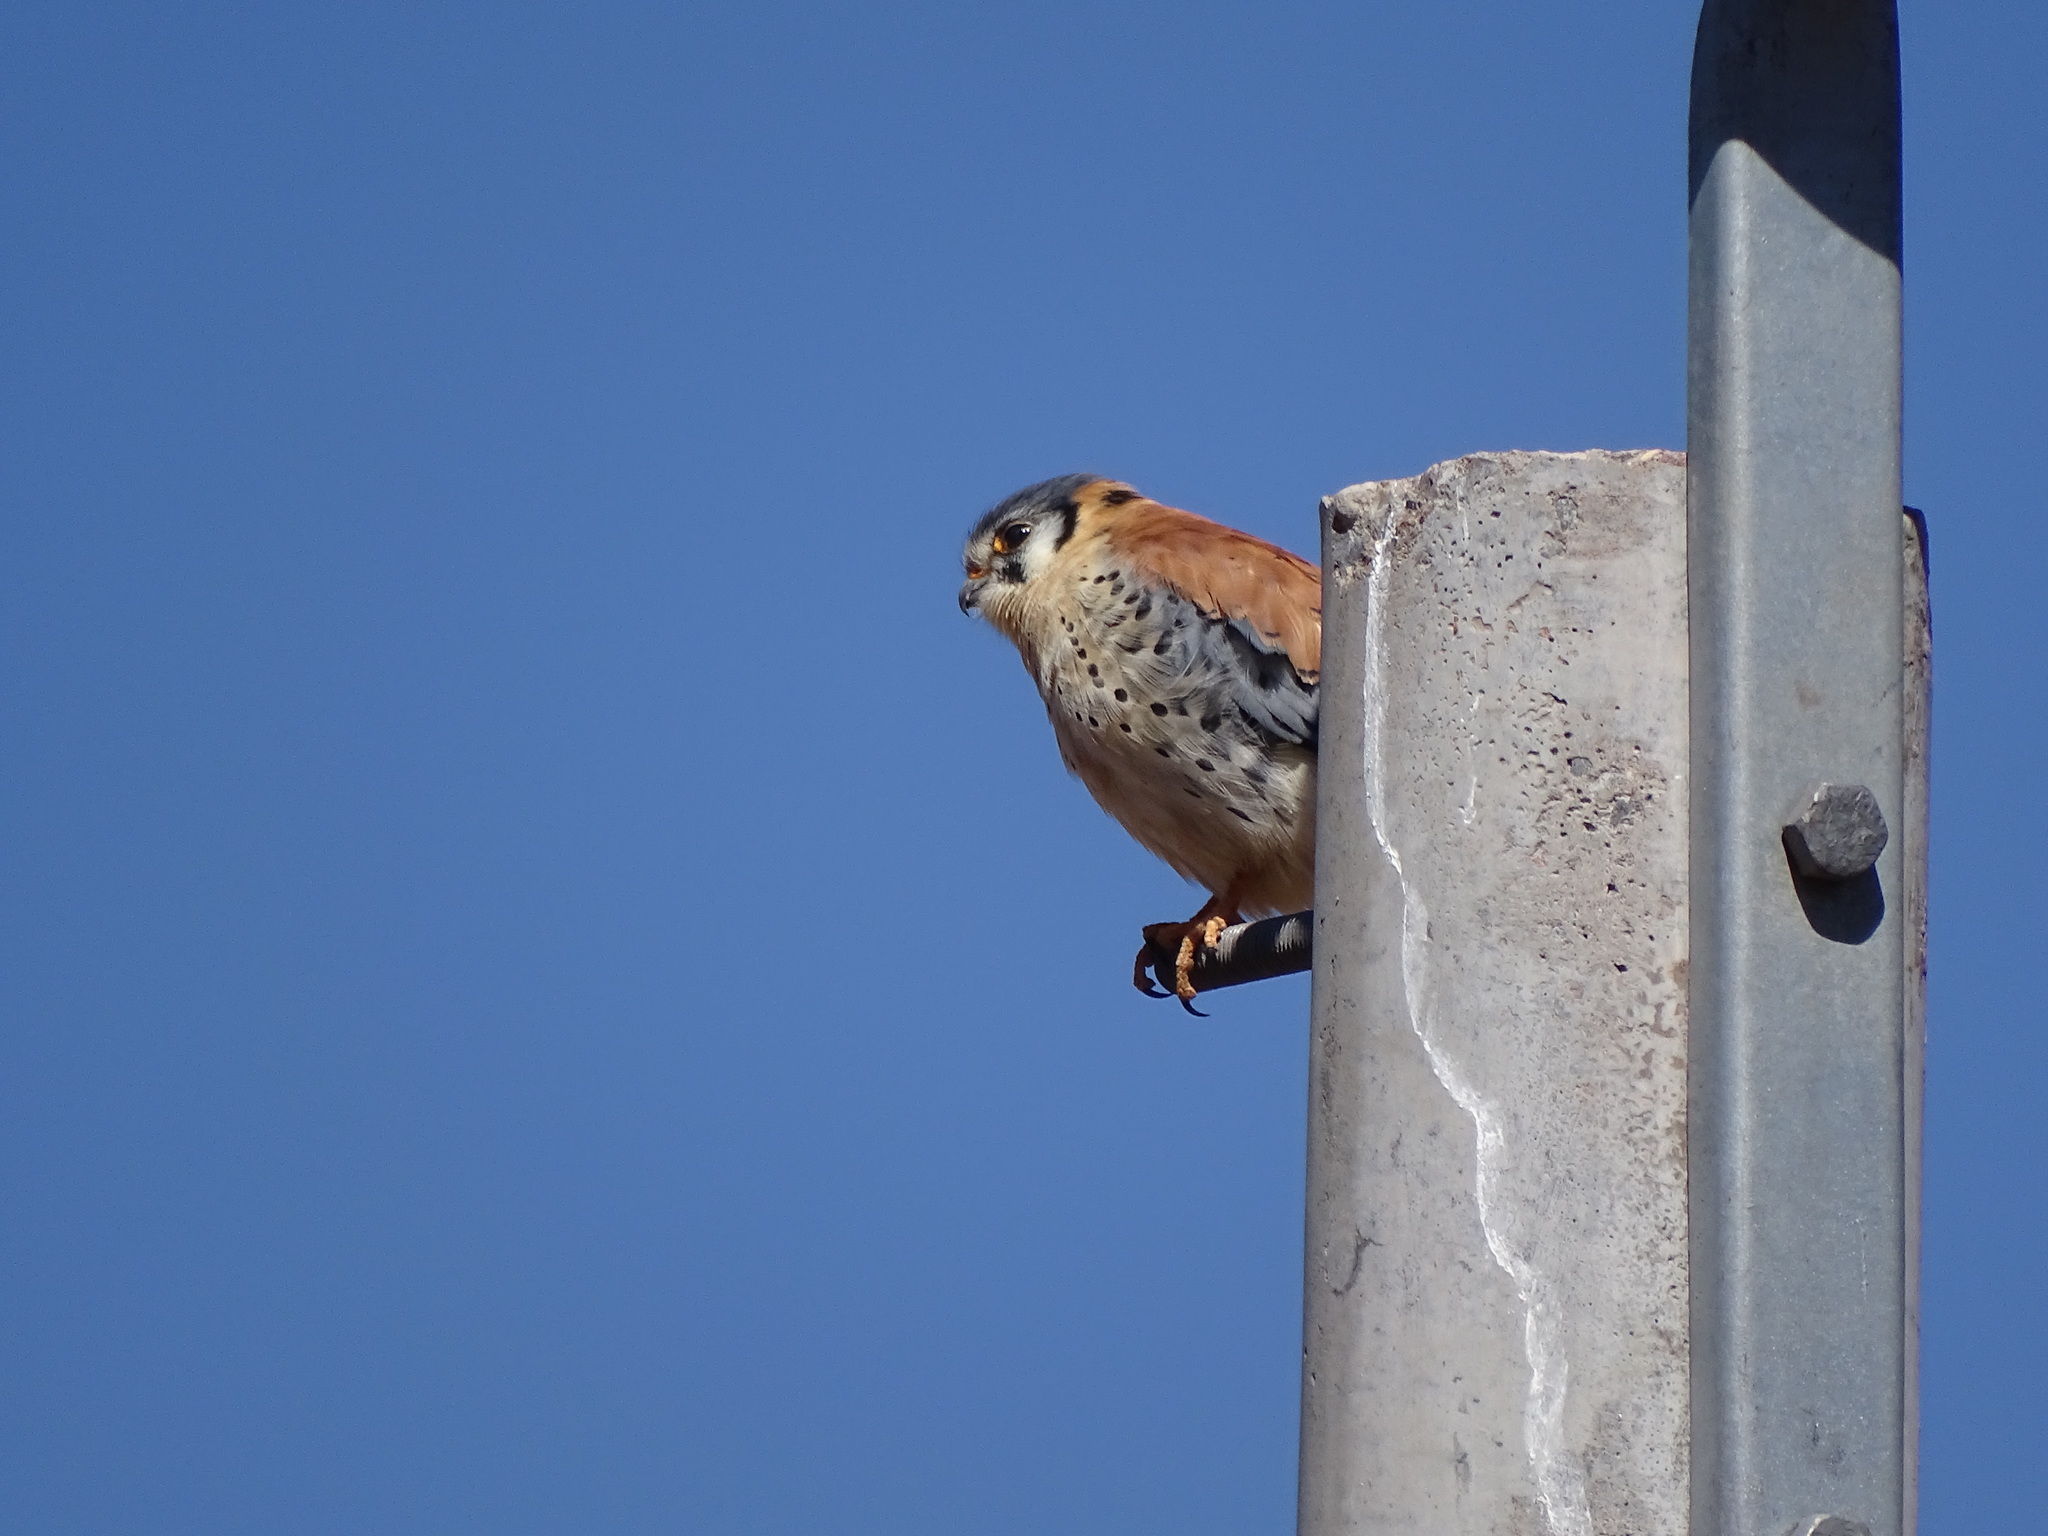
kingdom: Animalia
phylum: Chordata
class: Aves
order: Falconiformes
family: Falconidae
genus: Falco
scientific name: Falco sparverius
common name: American kestrel
